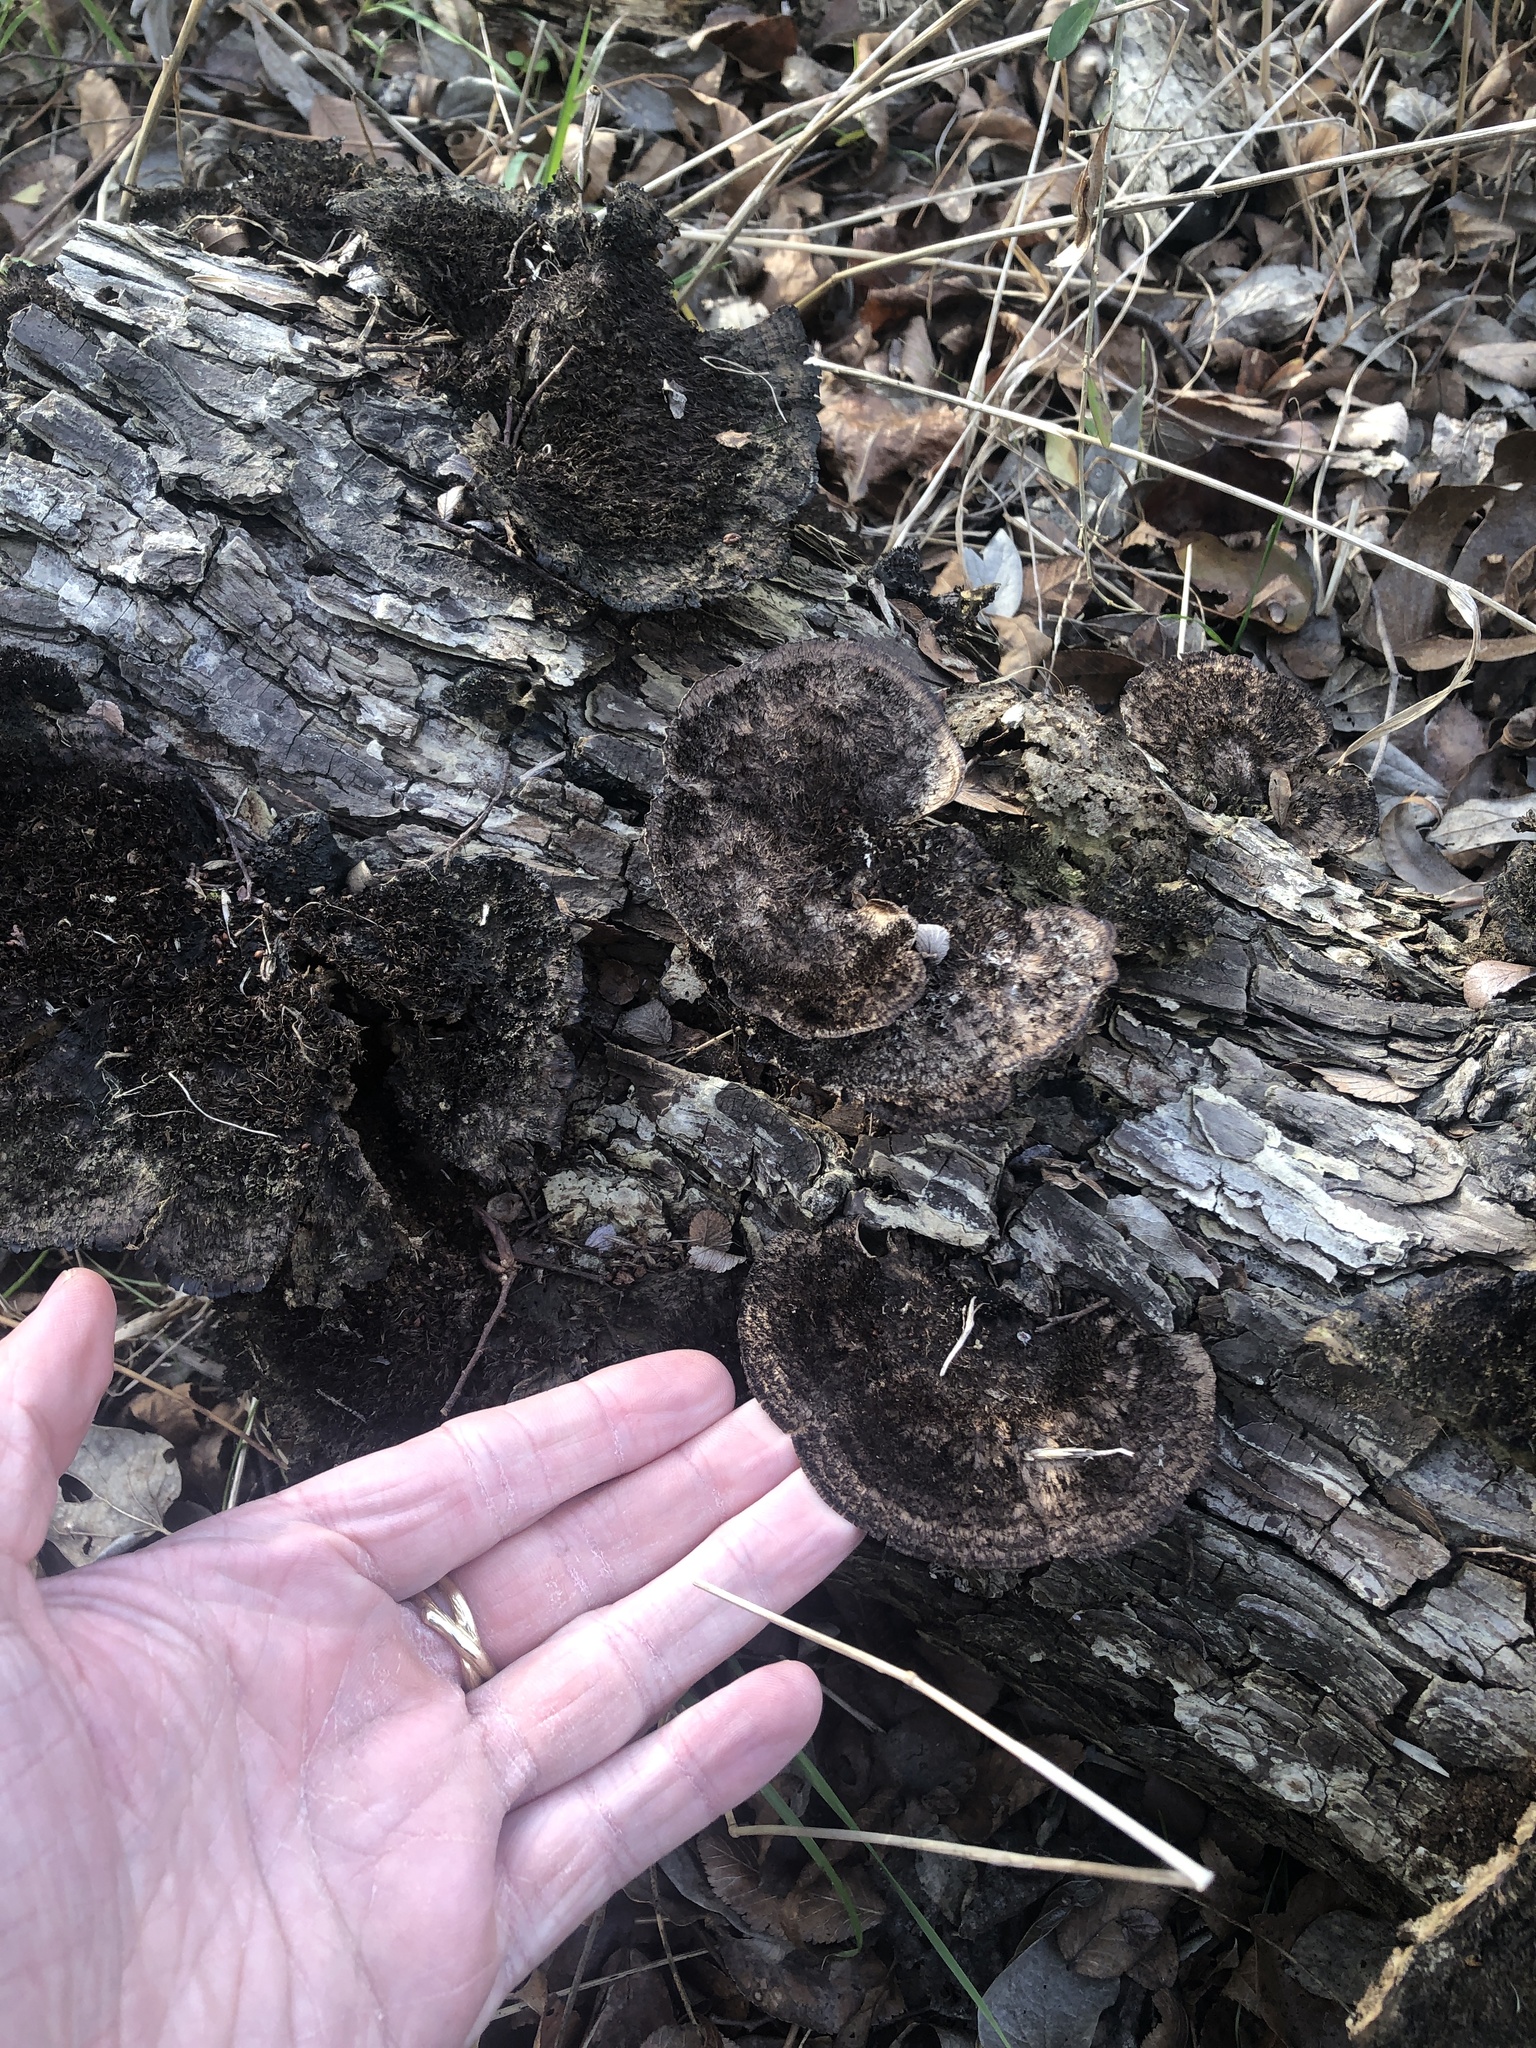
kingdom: Fungi
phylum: Basidiomycota
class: Agaricomycetes
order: Polyporales
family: Cerrenaceae
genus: Cerrena
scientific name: Cerrena hydnoides
